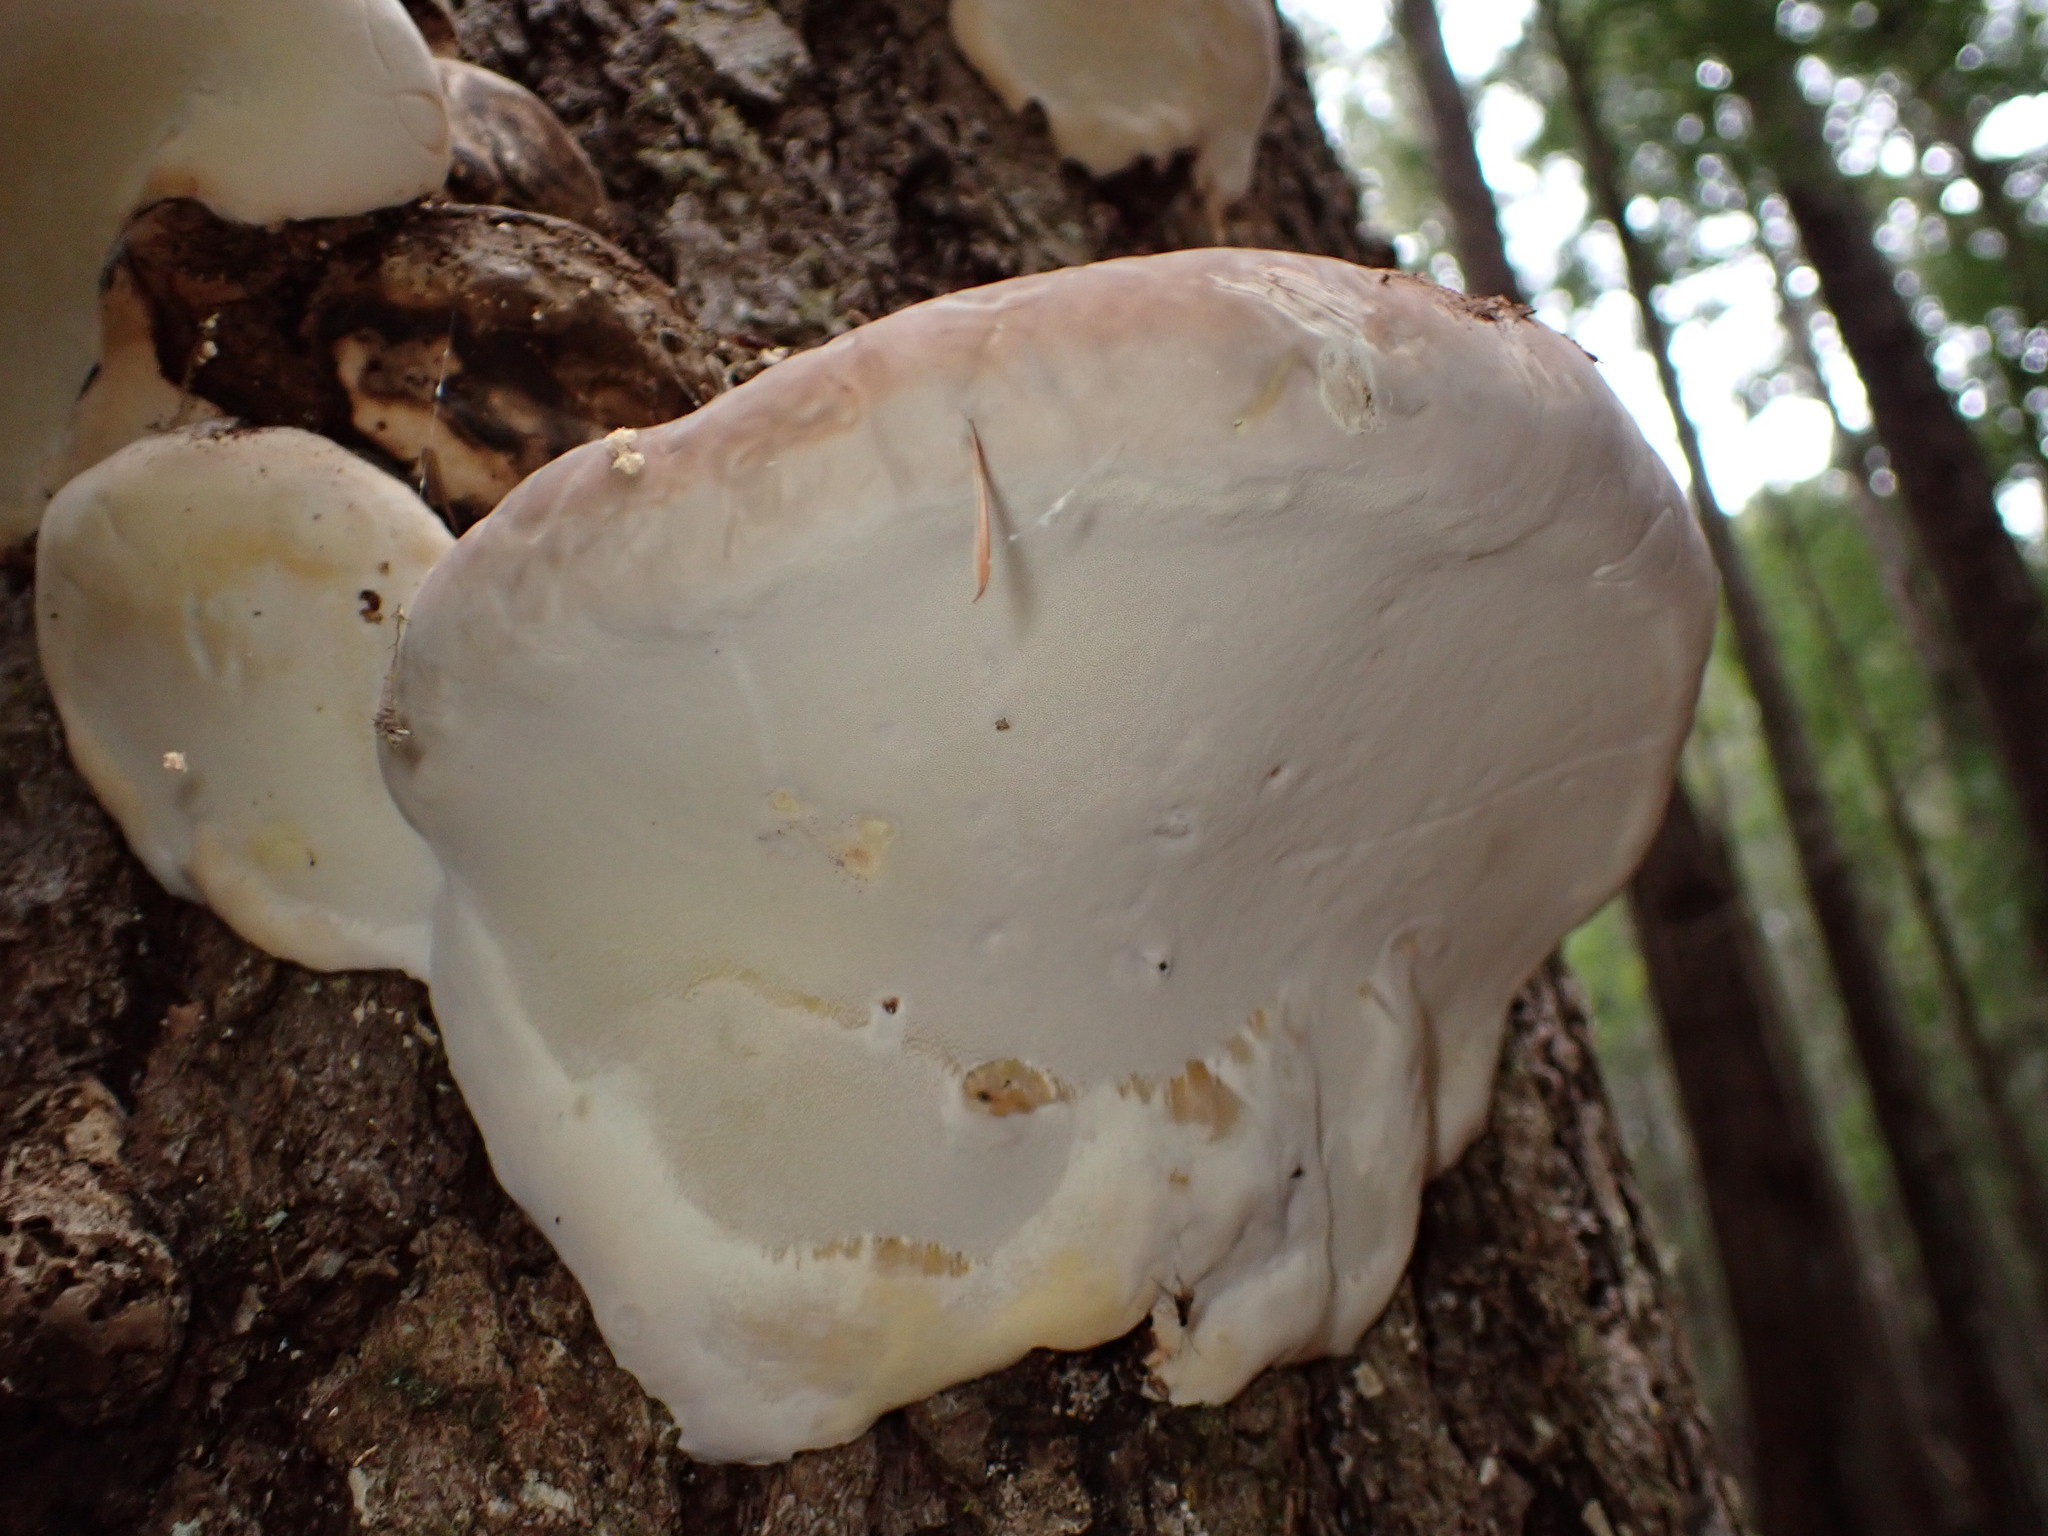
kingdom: Fungi
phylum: Basidiomycota
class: Agaricomycetes
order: Polyporales
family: Fomitopsidaceae
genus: Fomitopsis
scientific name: Fomitopsis ochracea
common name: American brown fomitopsis
